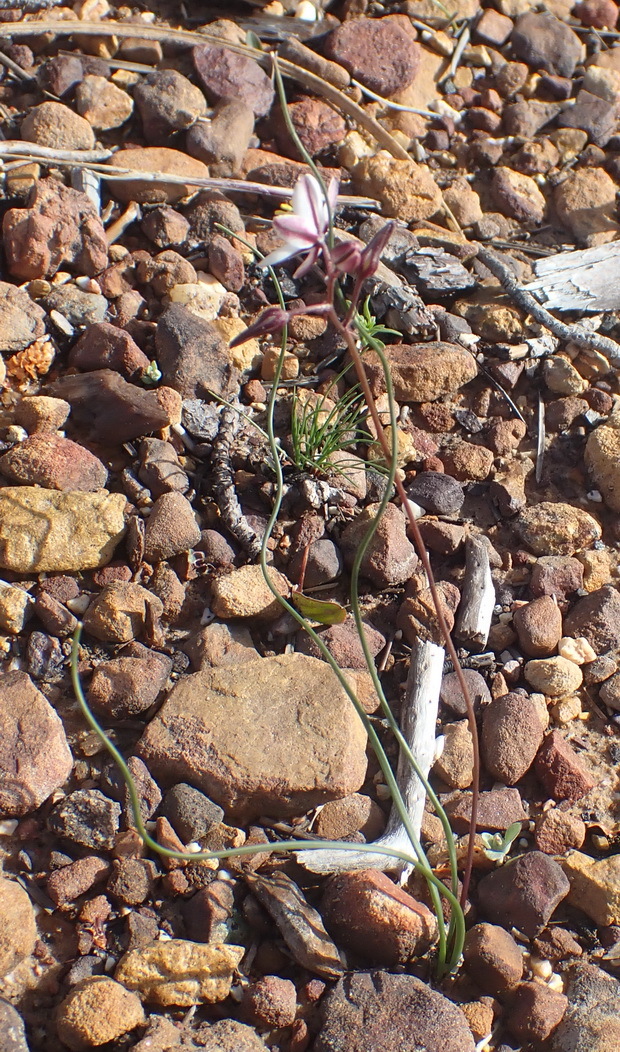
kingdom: Plantae
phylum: Tracheophyta
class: Liliopsida
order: Asparagales
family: Asparagaceae
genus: Drimia
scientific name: Drimia exuviata
